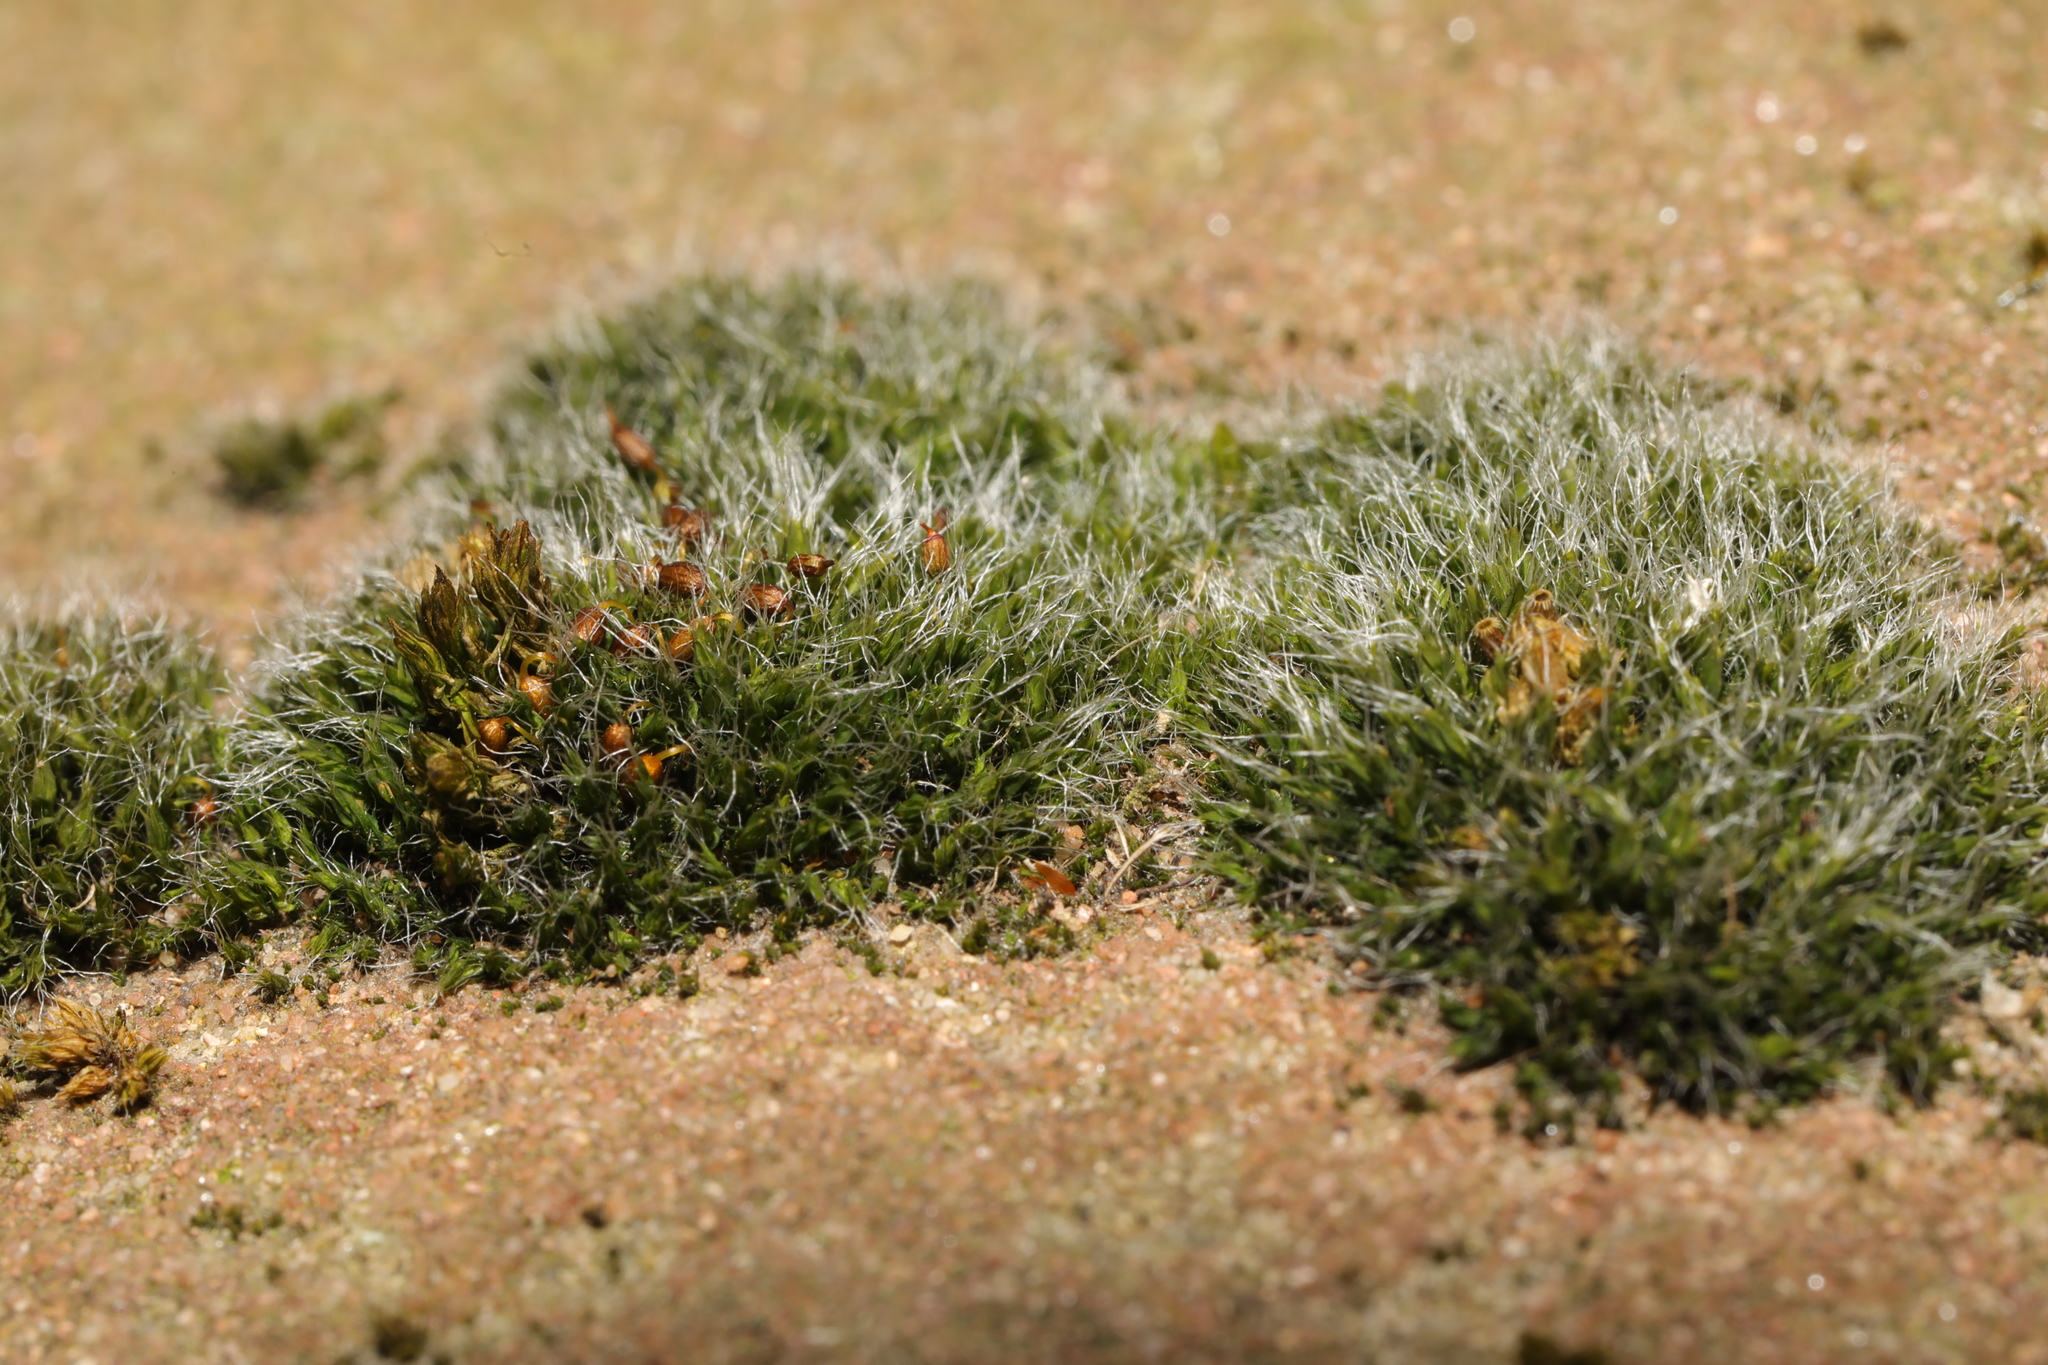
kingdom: Plantae
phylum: Bryophyta
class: Bryopsida
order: Grimmiales
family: Grimmiaceae
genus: Grimmia
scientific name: Grimmia pulvinata
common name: Grey-cushioned grimmia
